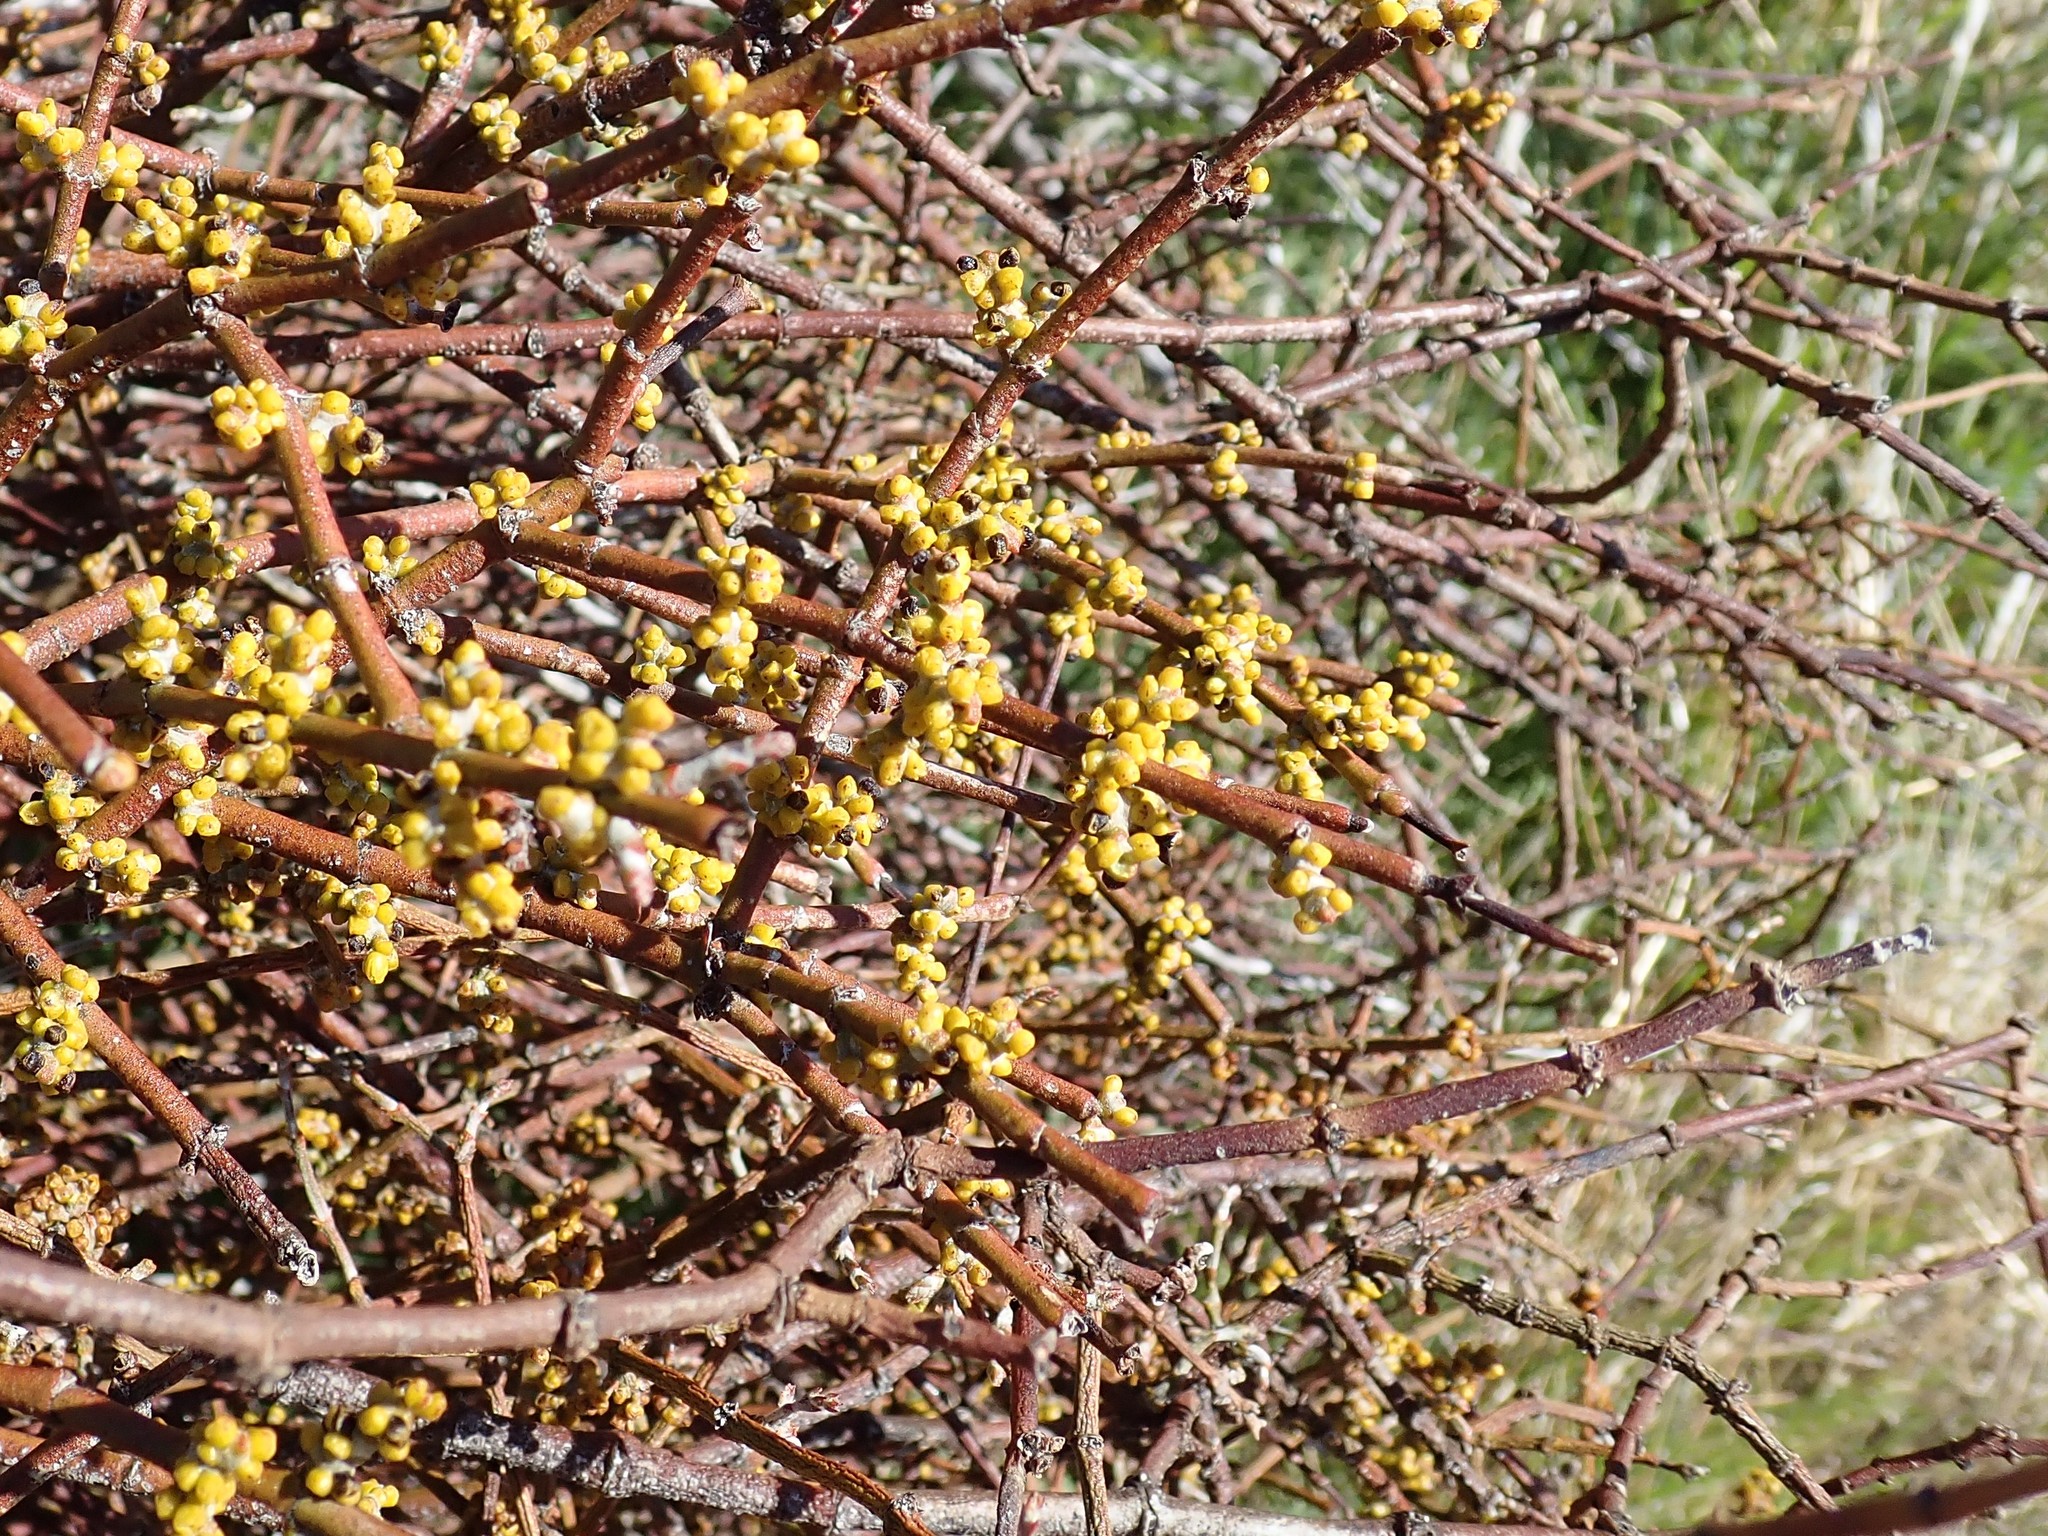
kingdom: Plantae
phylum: Tracheophyta
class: Magnoliopsida
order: Santalales
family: Viscaceae
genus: Phoradendron
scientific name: Phoradendron californicum
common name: Acacia mistletoe
